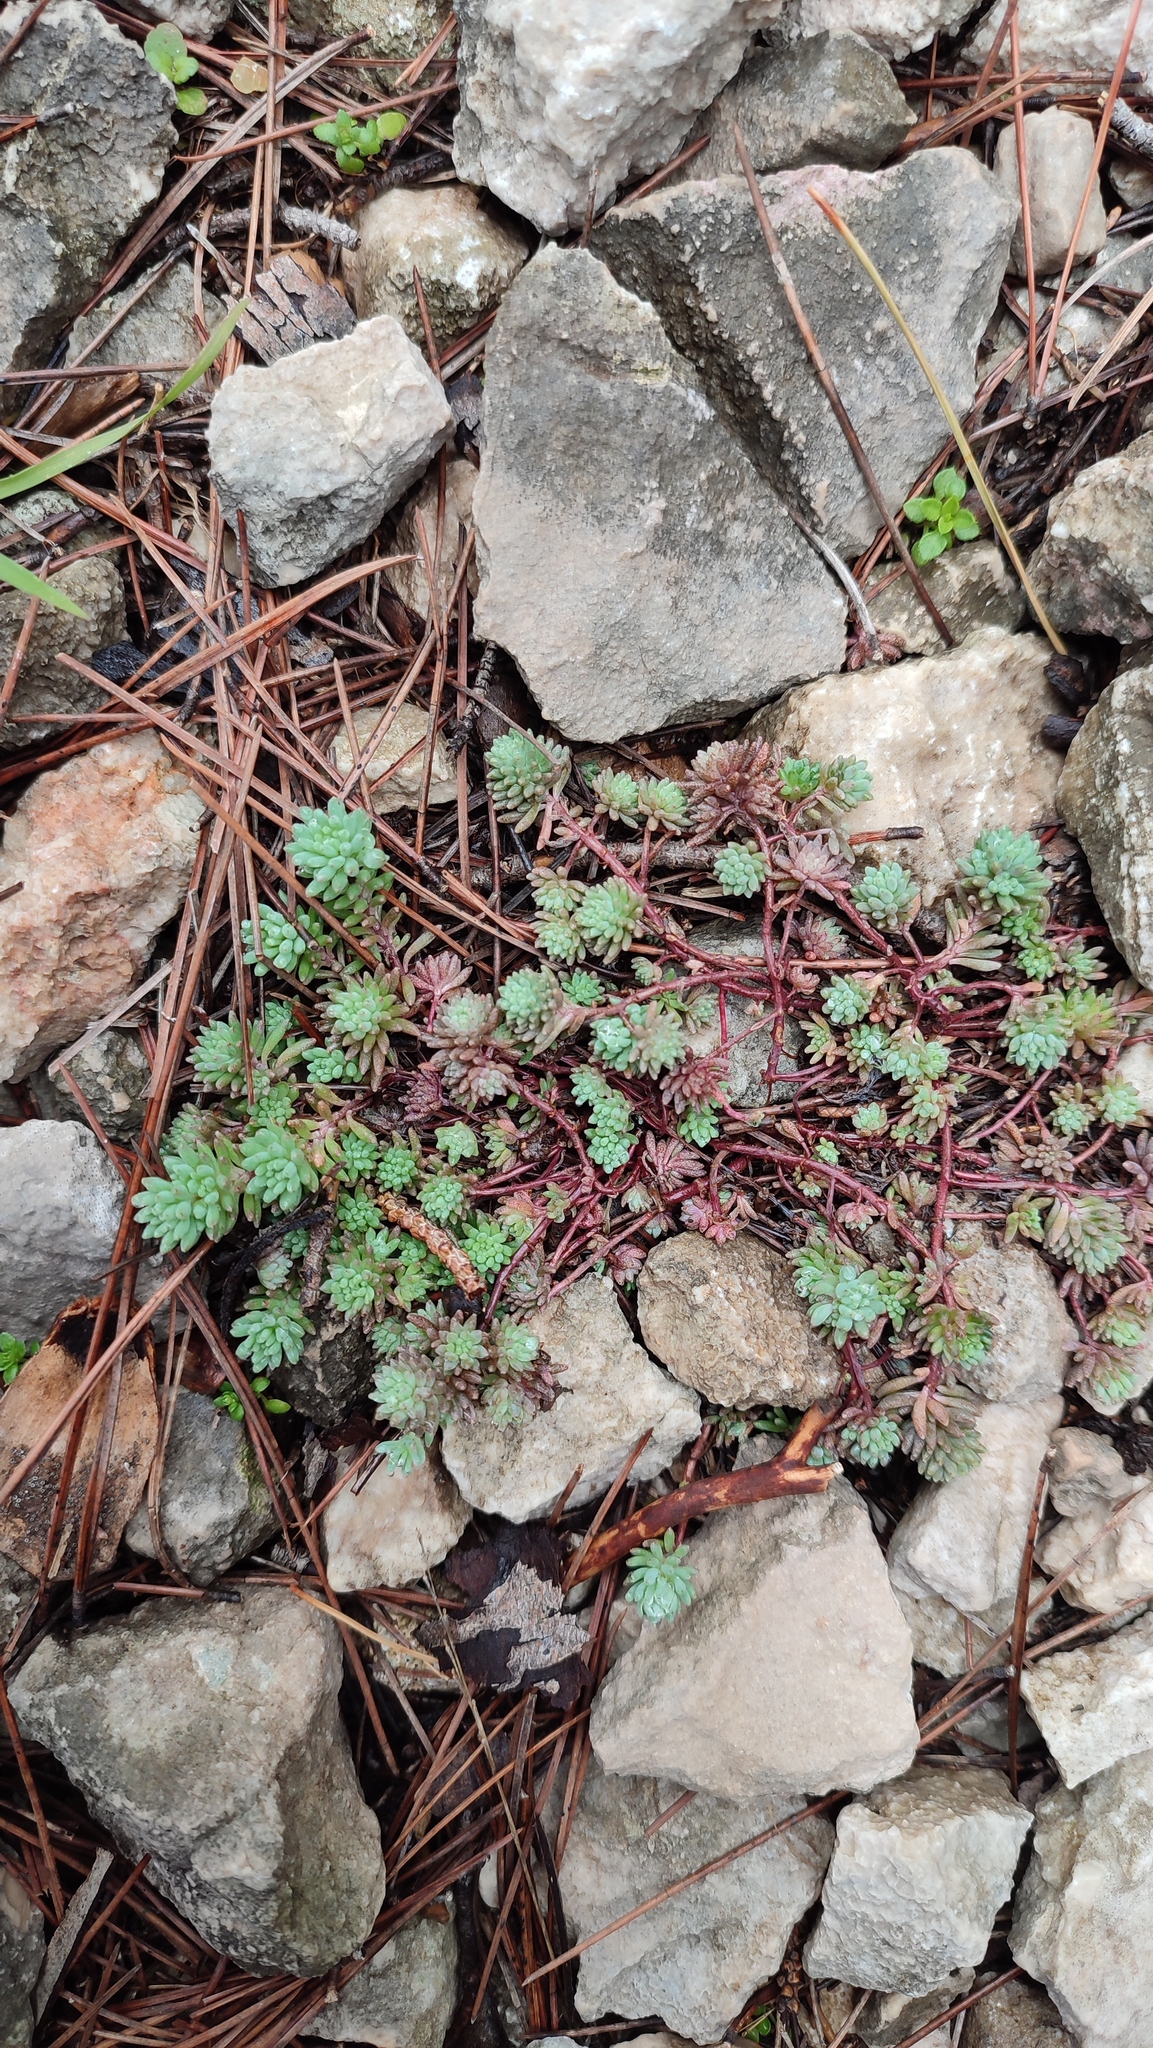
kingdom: Plantae
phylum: Tracheophyta
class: Magnoliopsida
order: Saxifragales
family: Crassulaceae
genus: Sedum
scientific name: Sedum hispanicum
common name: Spanish stonecrop
